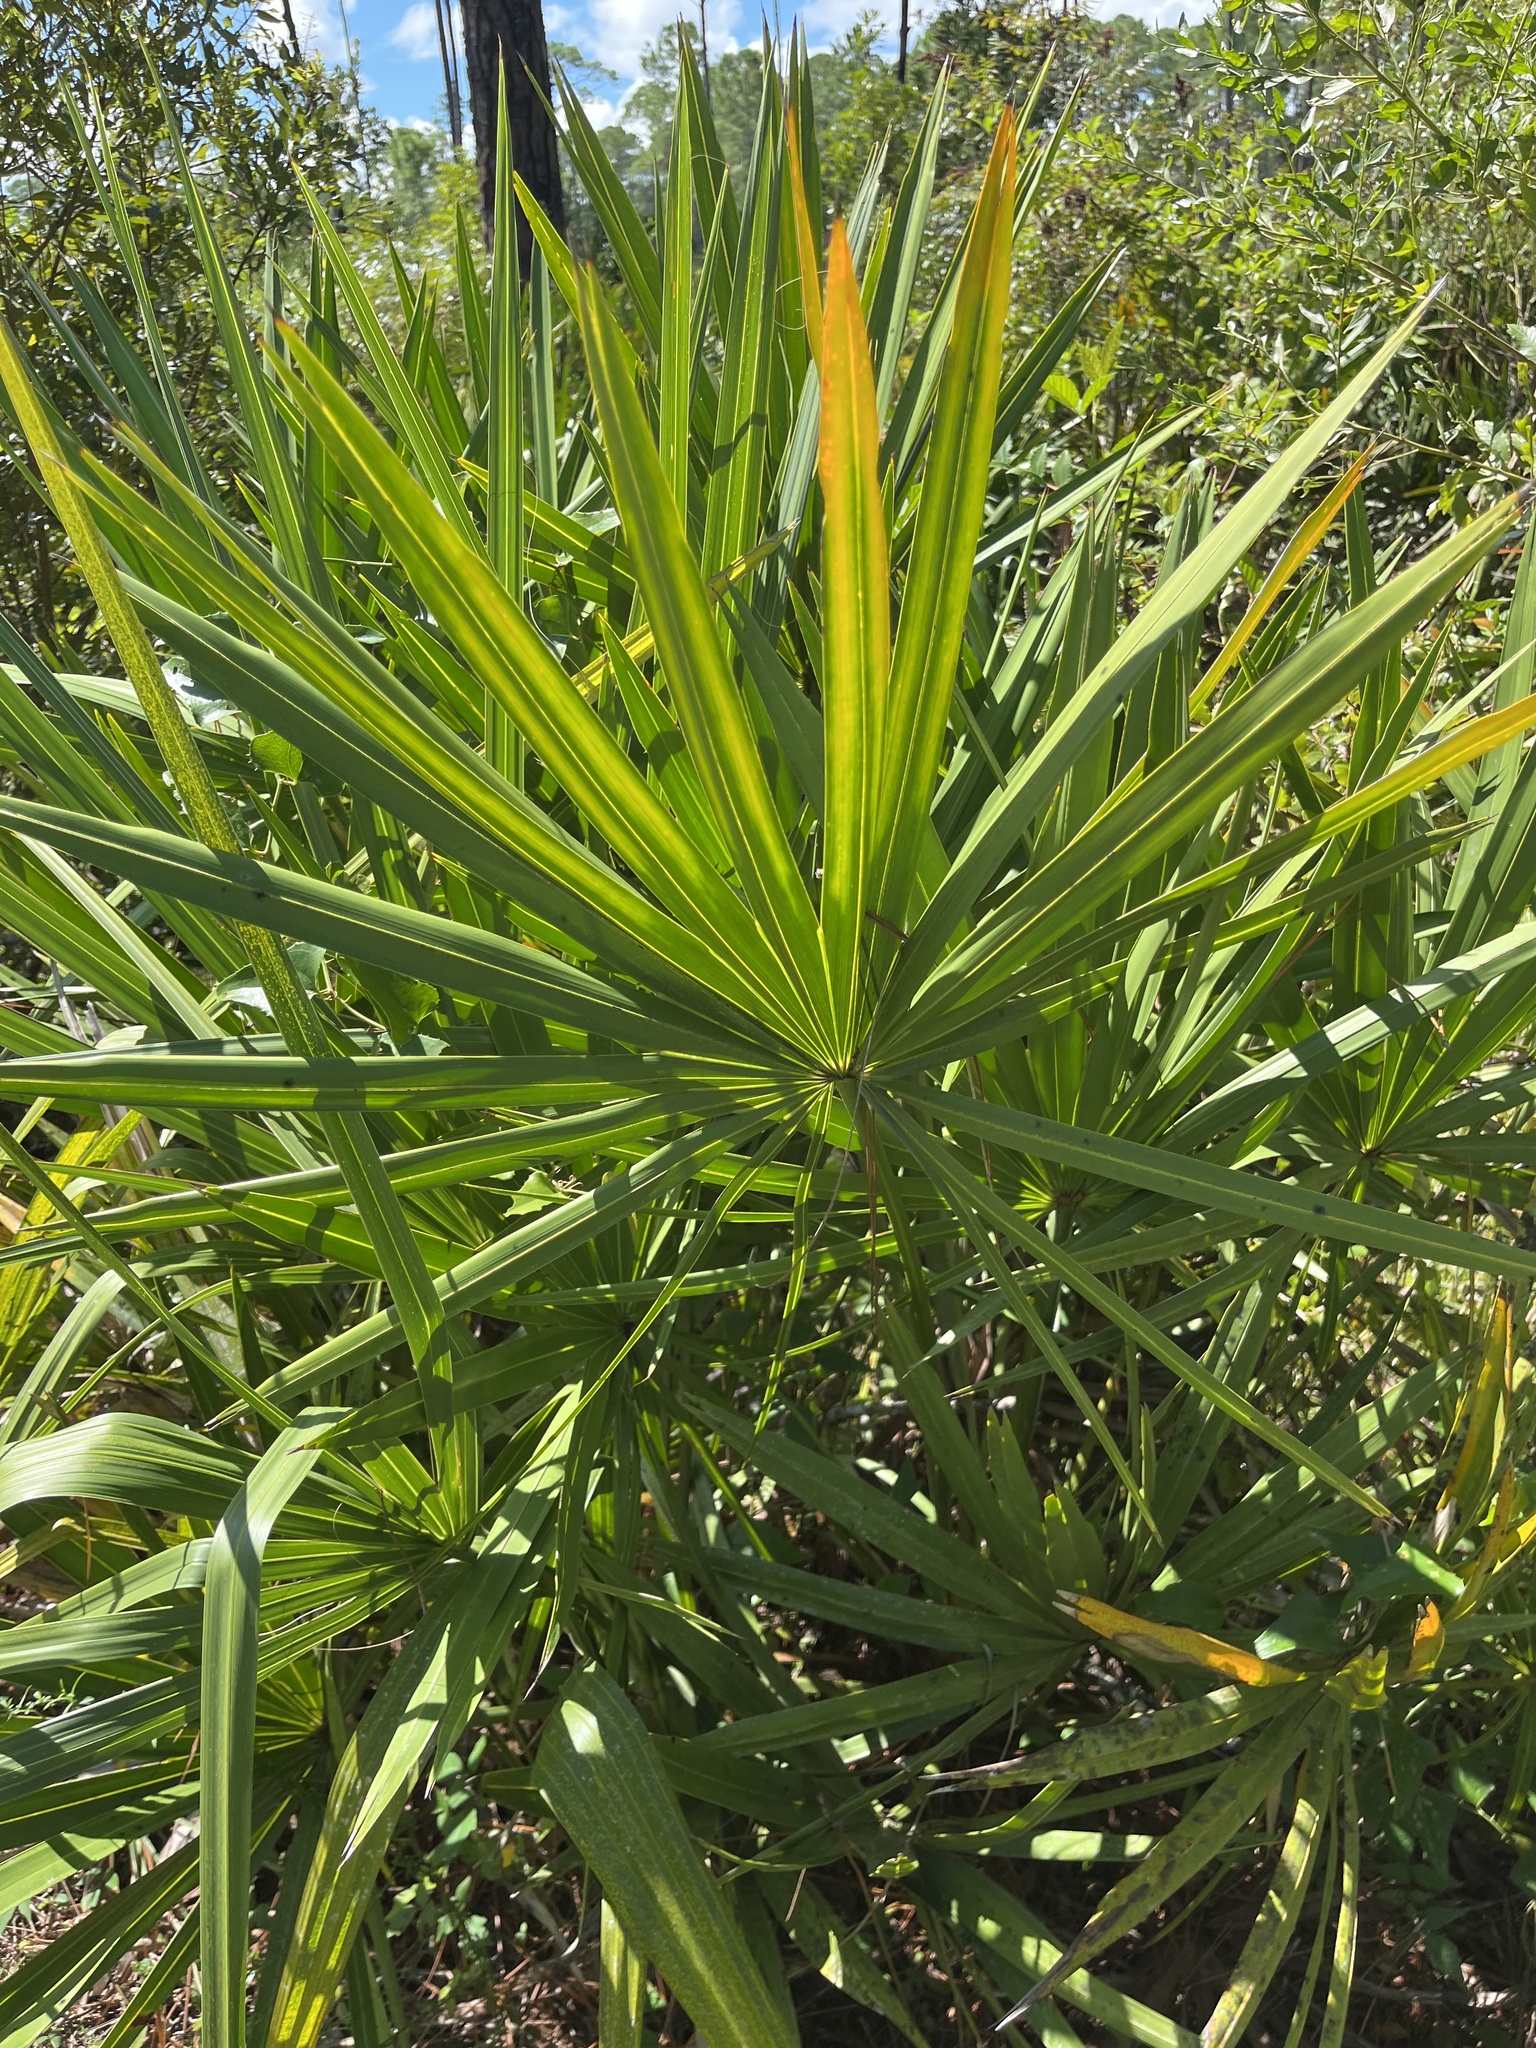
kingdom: Plantae
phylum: Tracheophyta
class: Liliopsida
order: Arecales
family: Arecaceae
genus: Serenoa
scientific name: Serenoa repens
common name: Saw-palmetto
